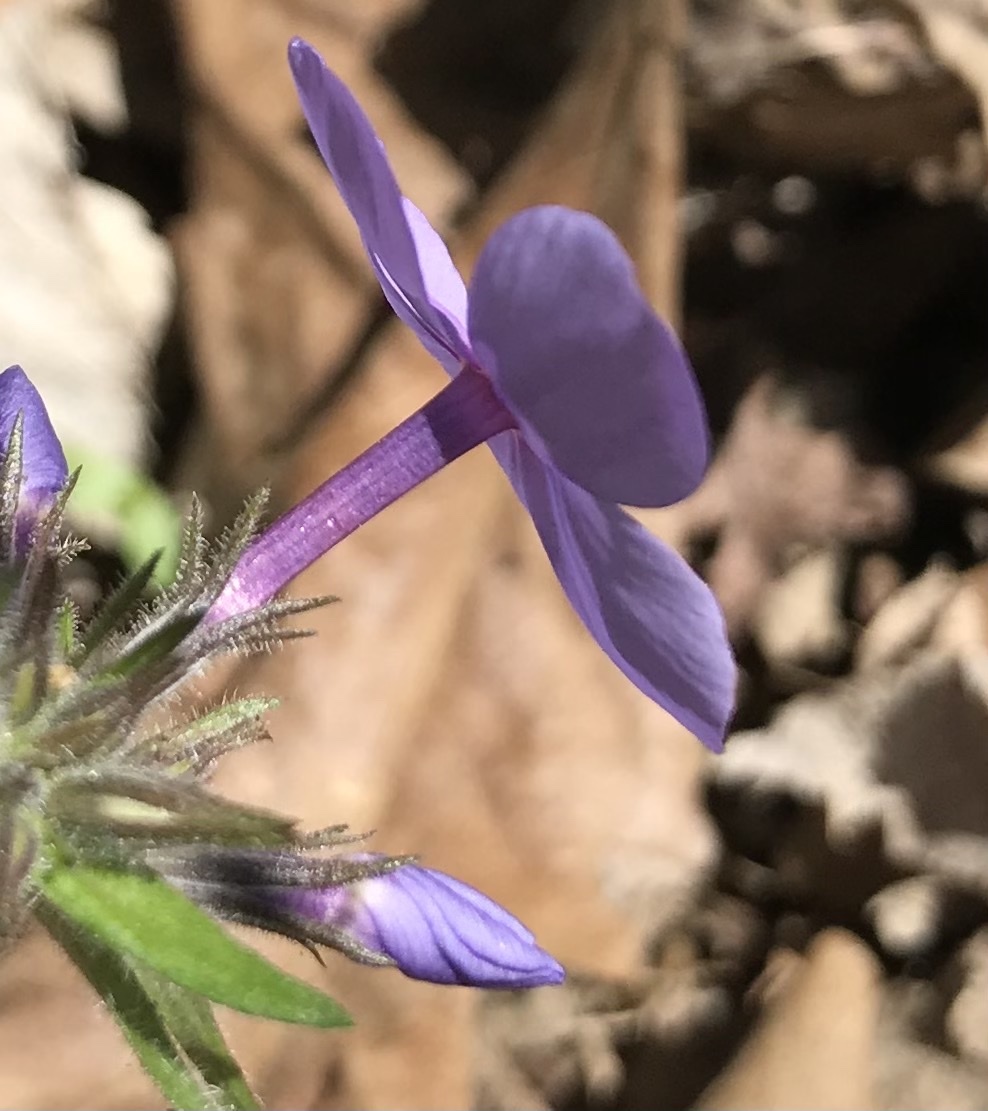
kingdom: Plantae
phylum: Tracheophyta
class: Magnoliopsida
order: Ericales
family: Polemoniaceae
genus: Phlox
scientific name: Phlox divaricata
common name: Blue phlox
